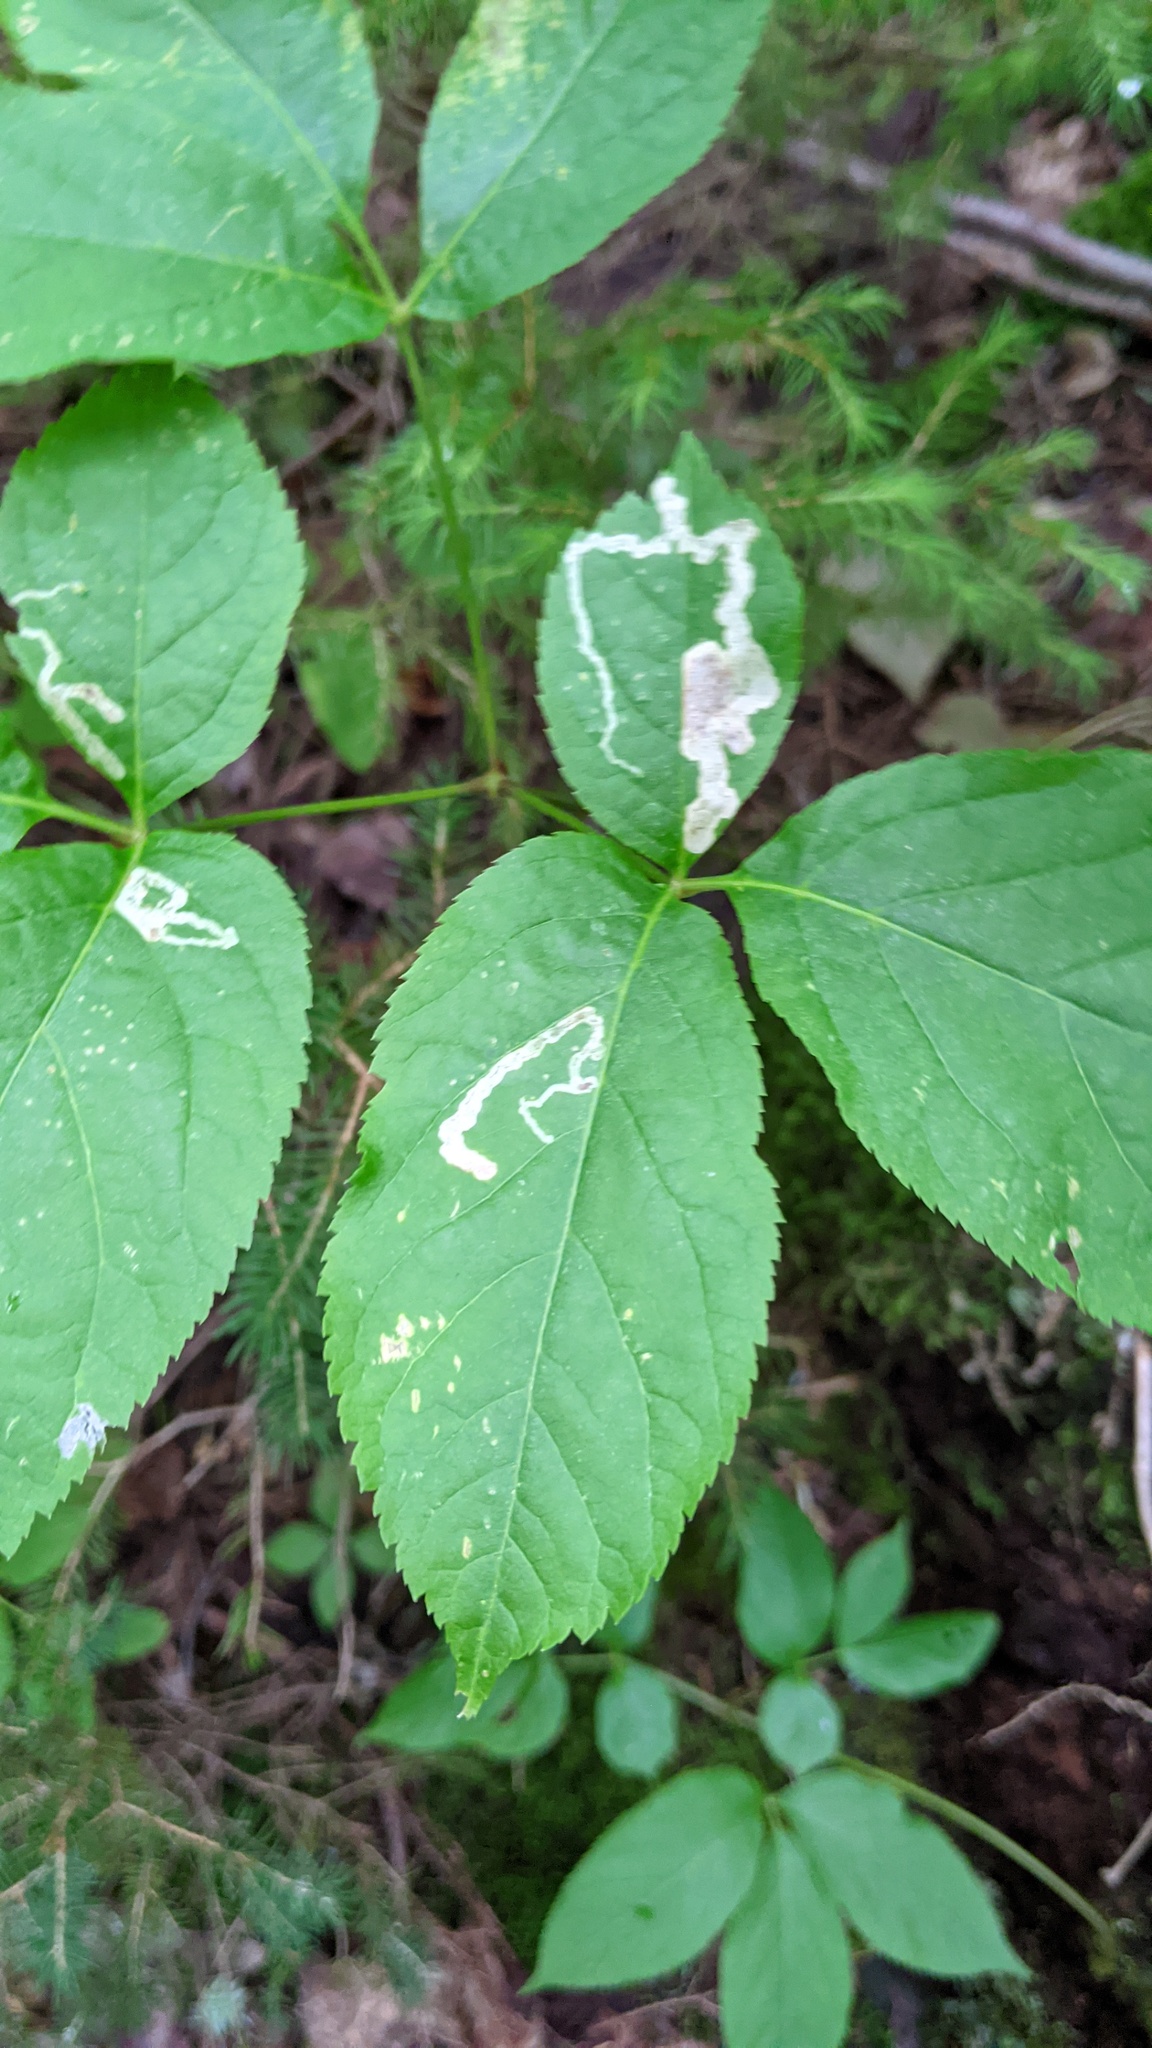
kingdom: Animalia
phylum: Arthropoda
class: Insecta
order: Diptera
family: Agromyzidae
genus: Phytomyza
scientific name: Phytomyza aralivora
